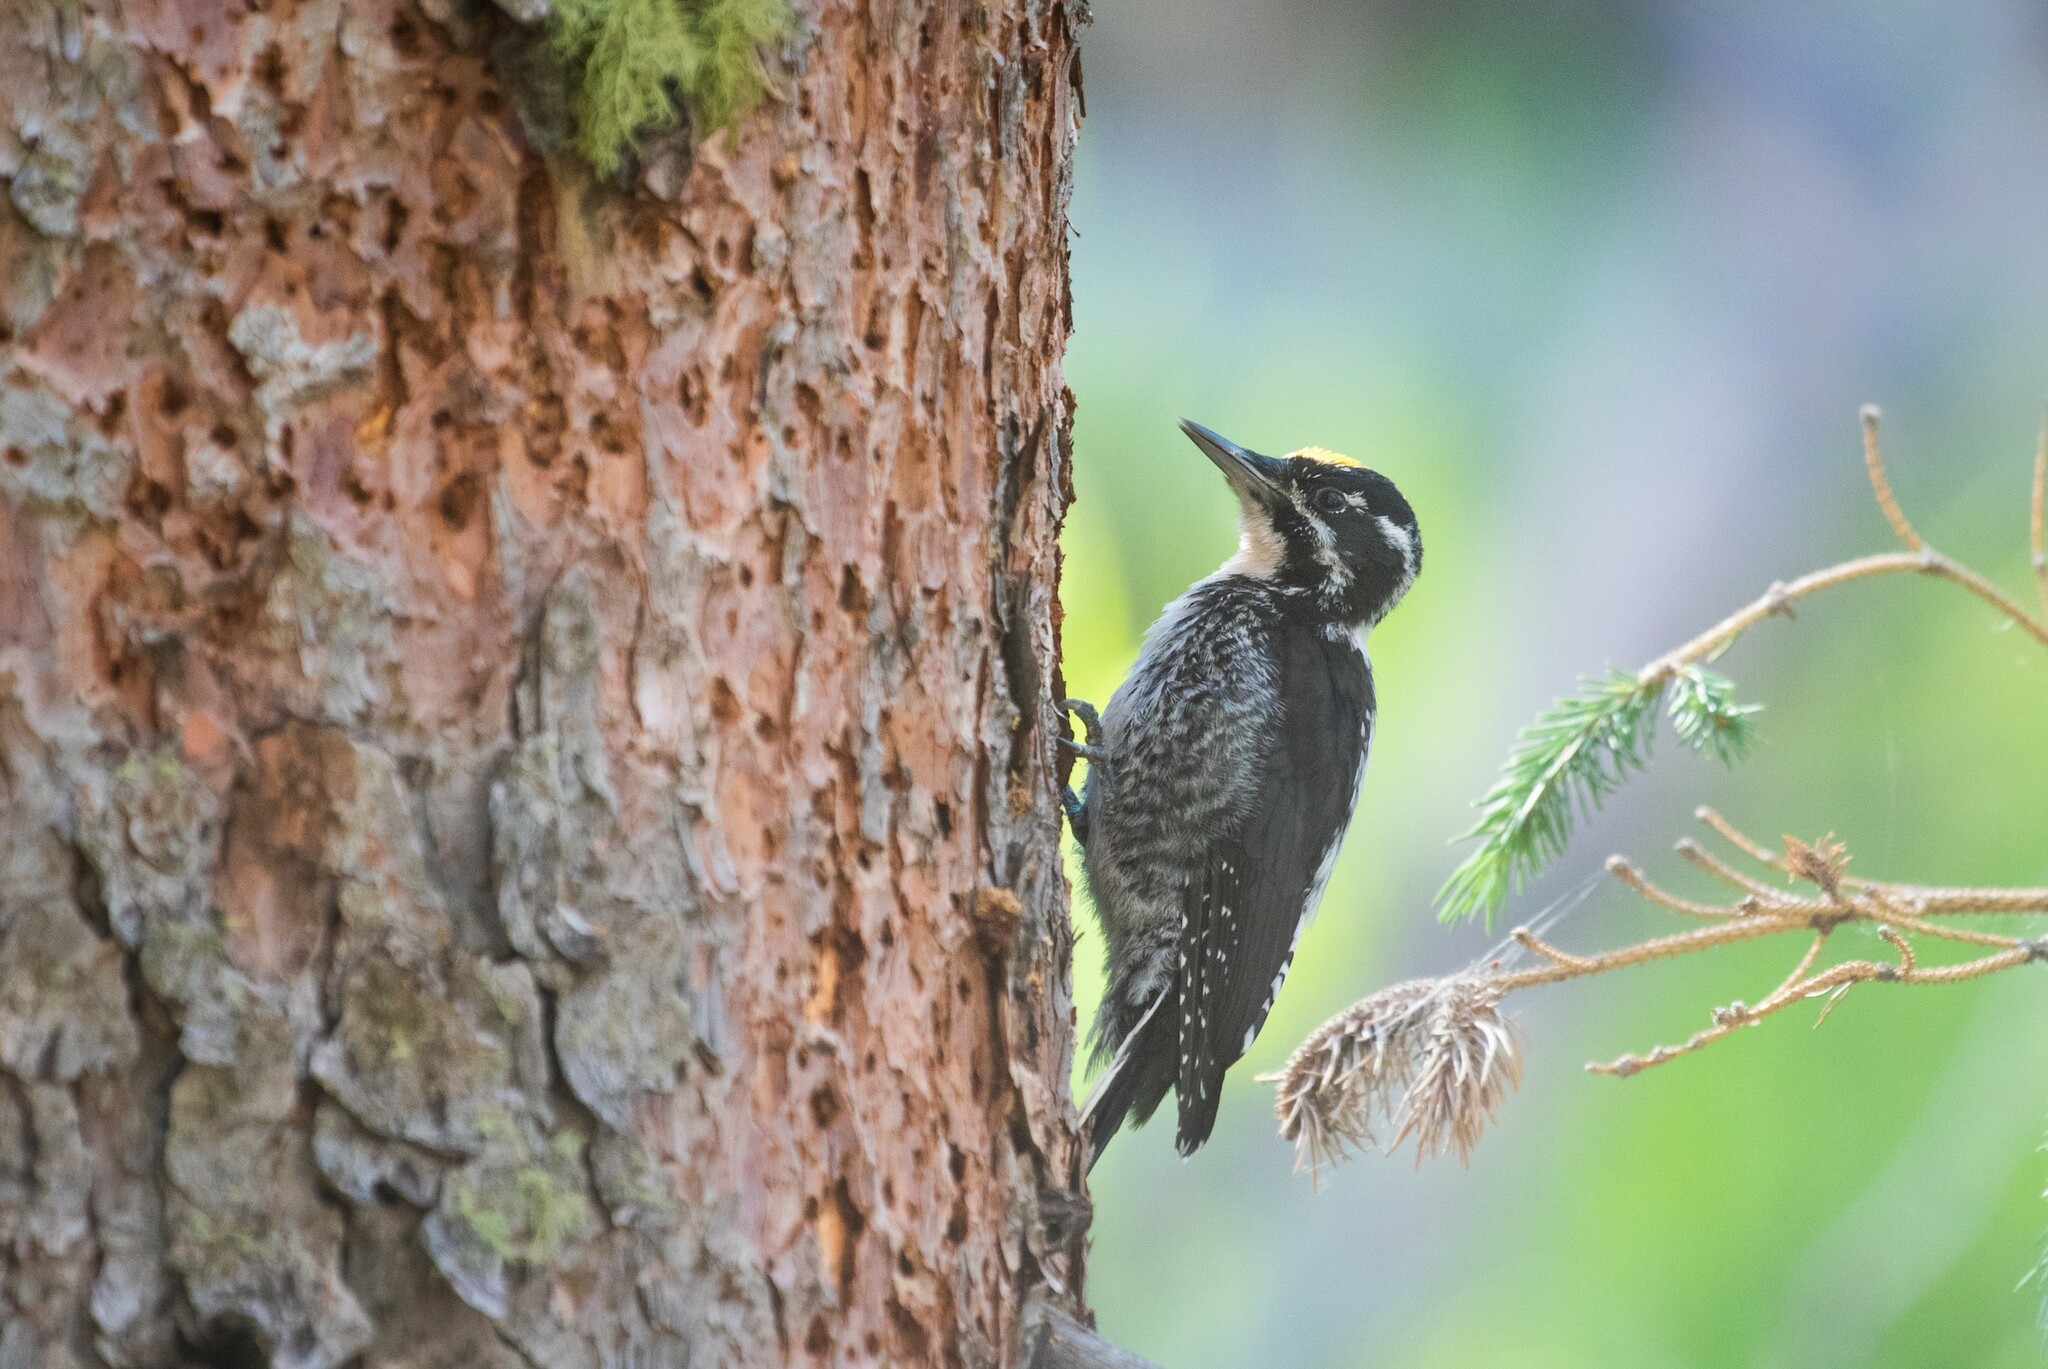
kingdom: Animalia
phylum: Chordata
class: Aves
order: Piciformes
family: Picidae
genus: Picoides
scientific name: Picoides dorsalis
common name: American three-toed woodpecker
